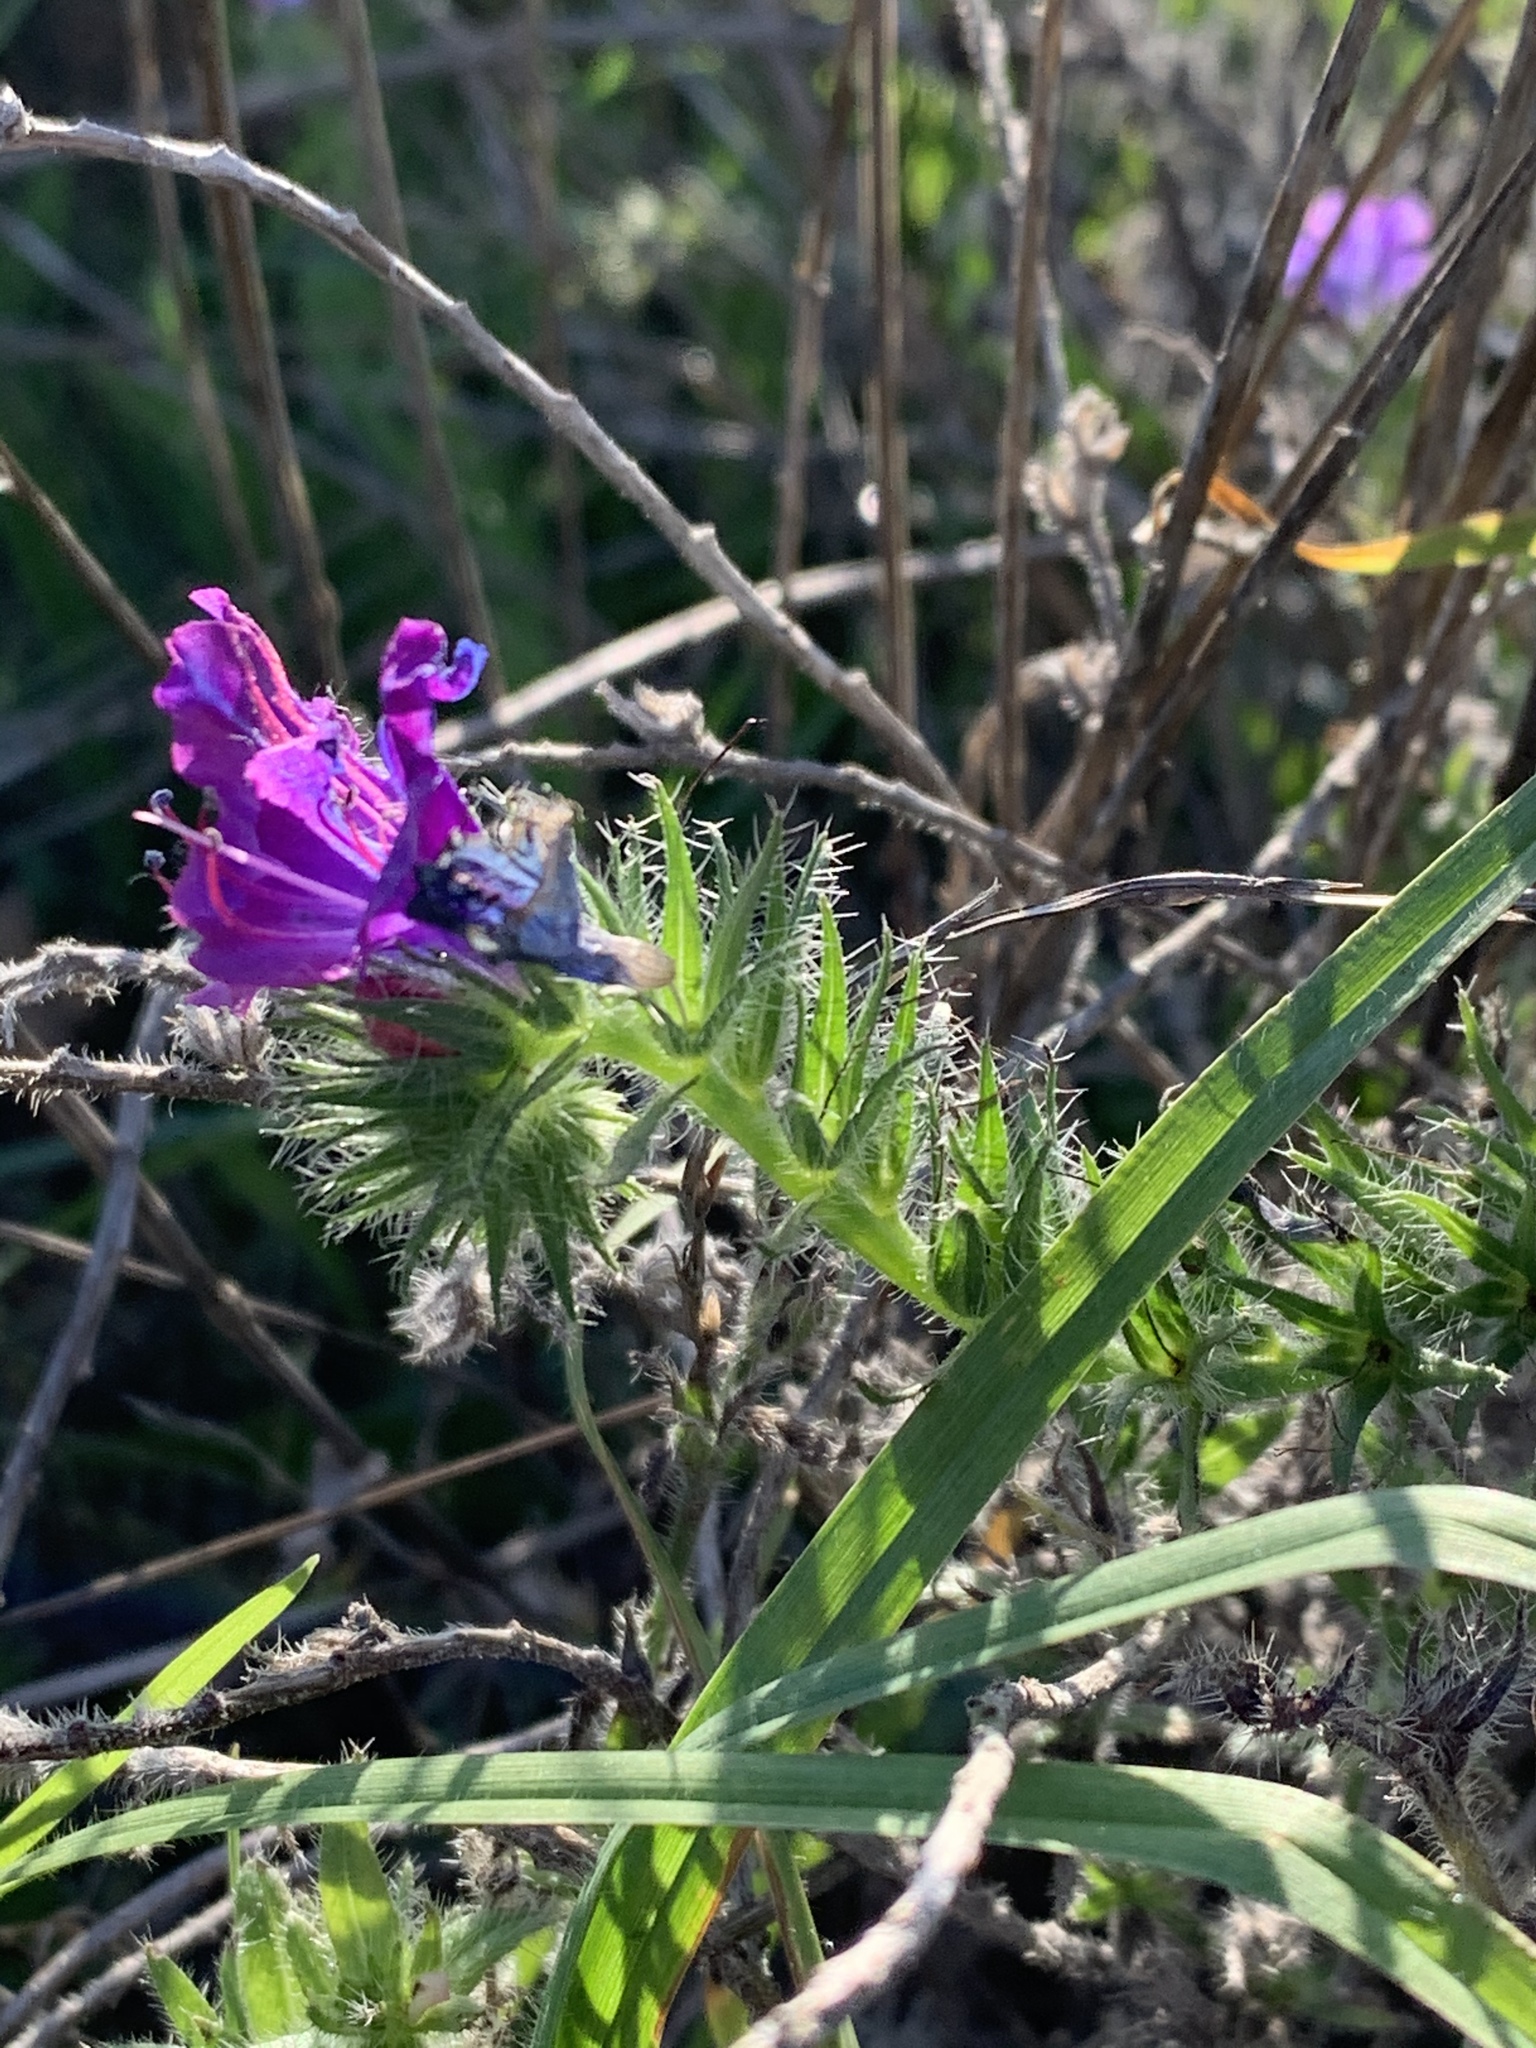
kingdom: Plantae
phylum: Tracheophyta
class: Magnoliopsida
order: Boraginales
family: Boraginaceae
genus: Echium
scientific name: Echium plantagineum
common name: Purple viper's-bugloss
